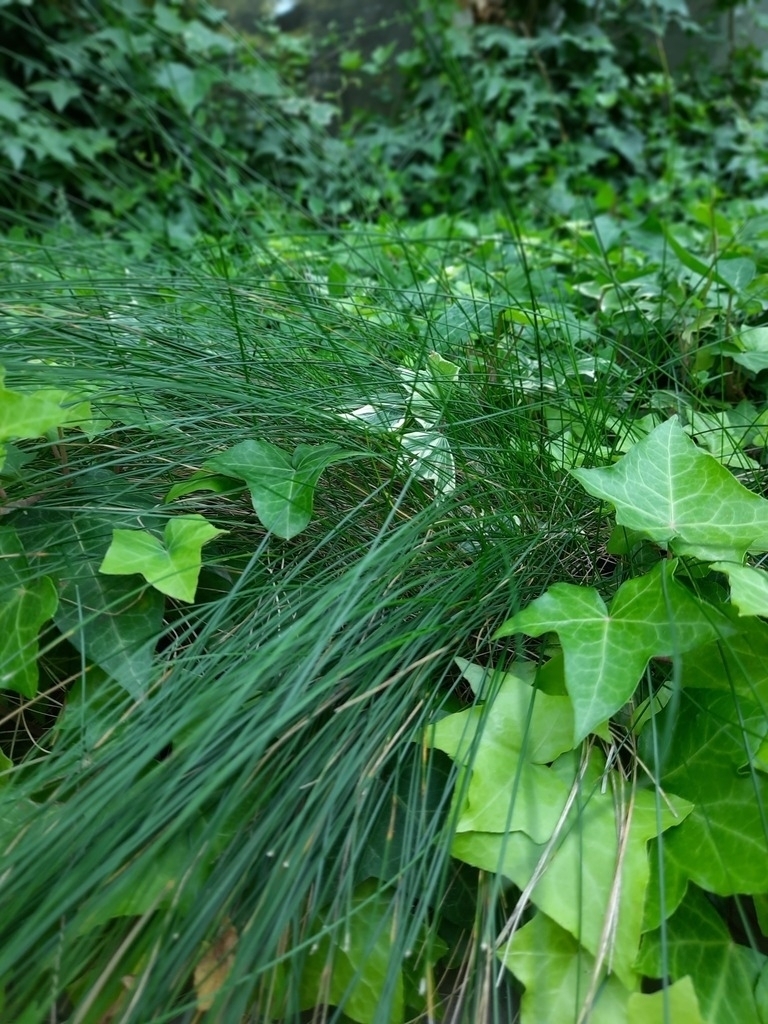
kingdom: Plantae
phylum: Tracheophyta
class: Magnoliopsida
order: Apiales
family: Araliaceae
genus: Hedera
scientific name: Hedera helix
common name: Ivy
